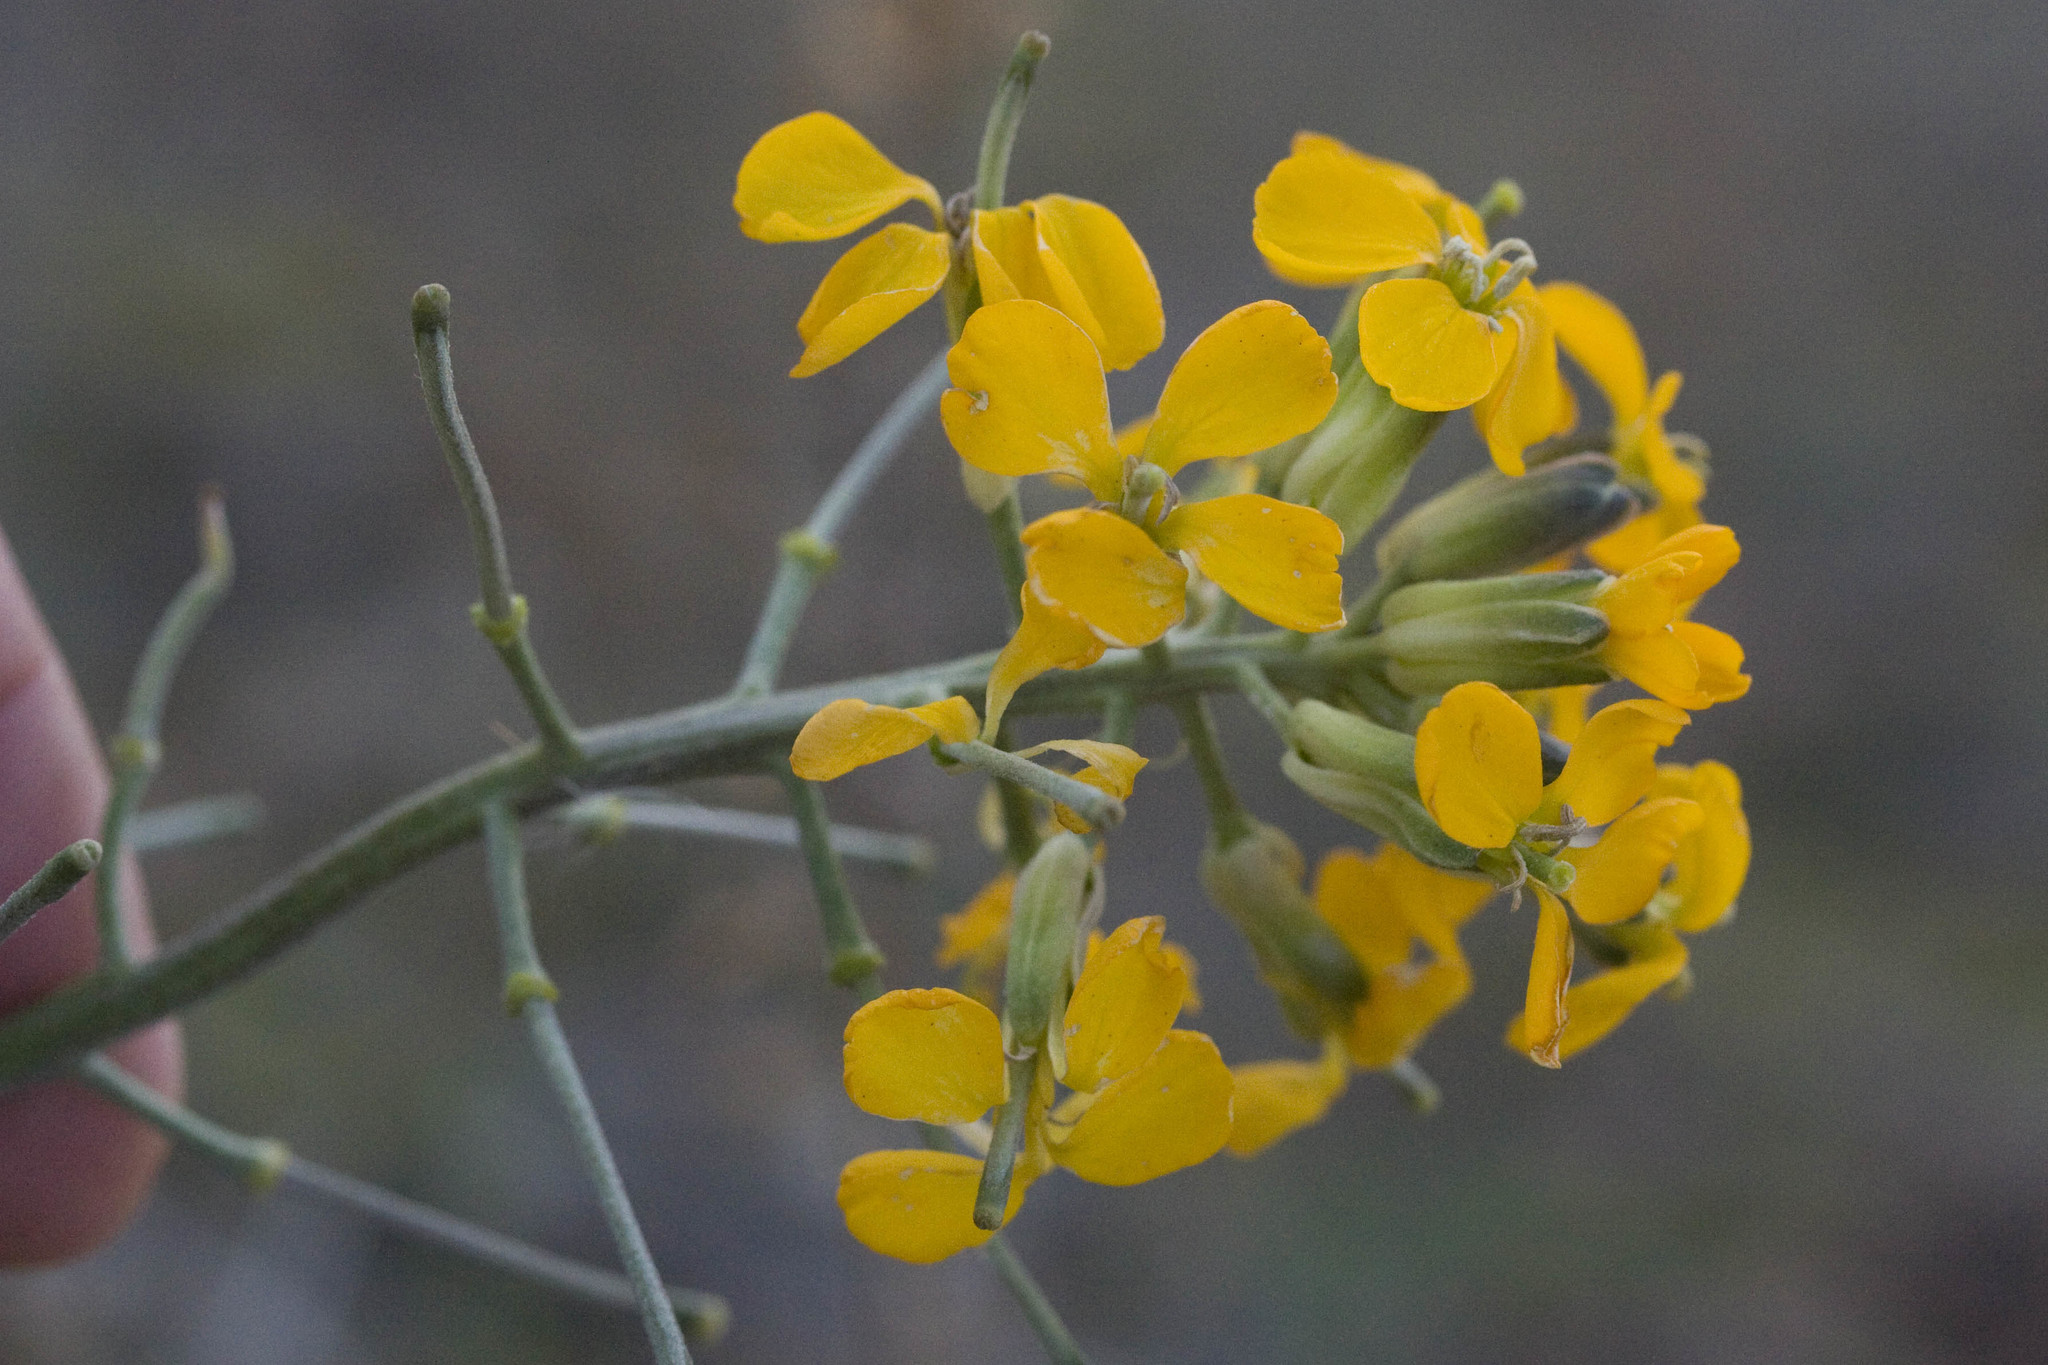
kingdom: Plantae
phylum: Tracheophyta
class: Magnoliopsida
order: Brassicales
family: Brassicaceae
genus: Erysimum
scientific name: Erysimum capitatum
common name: Western wallflower
